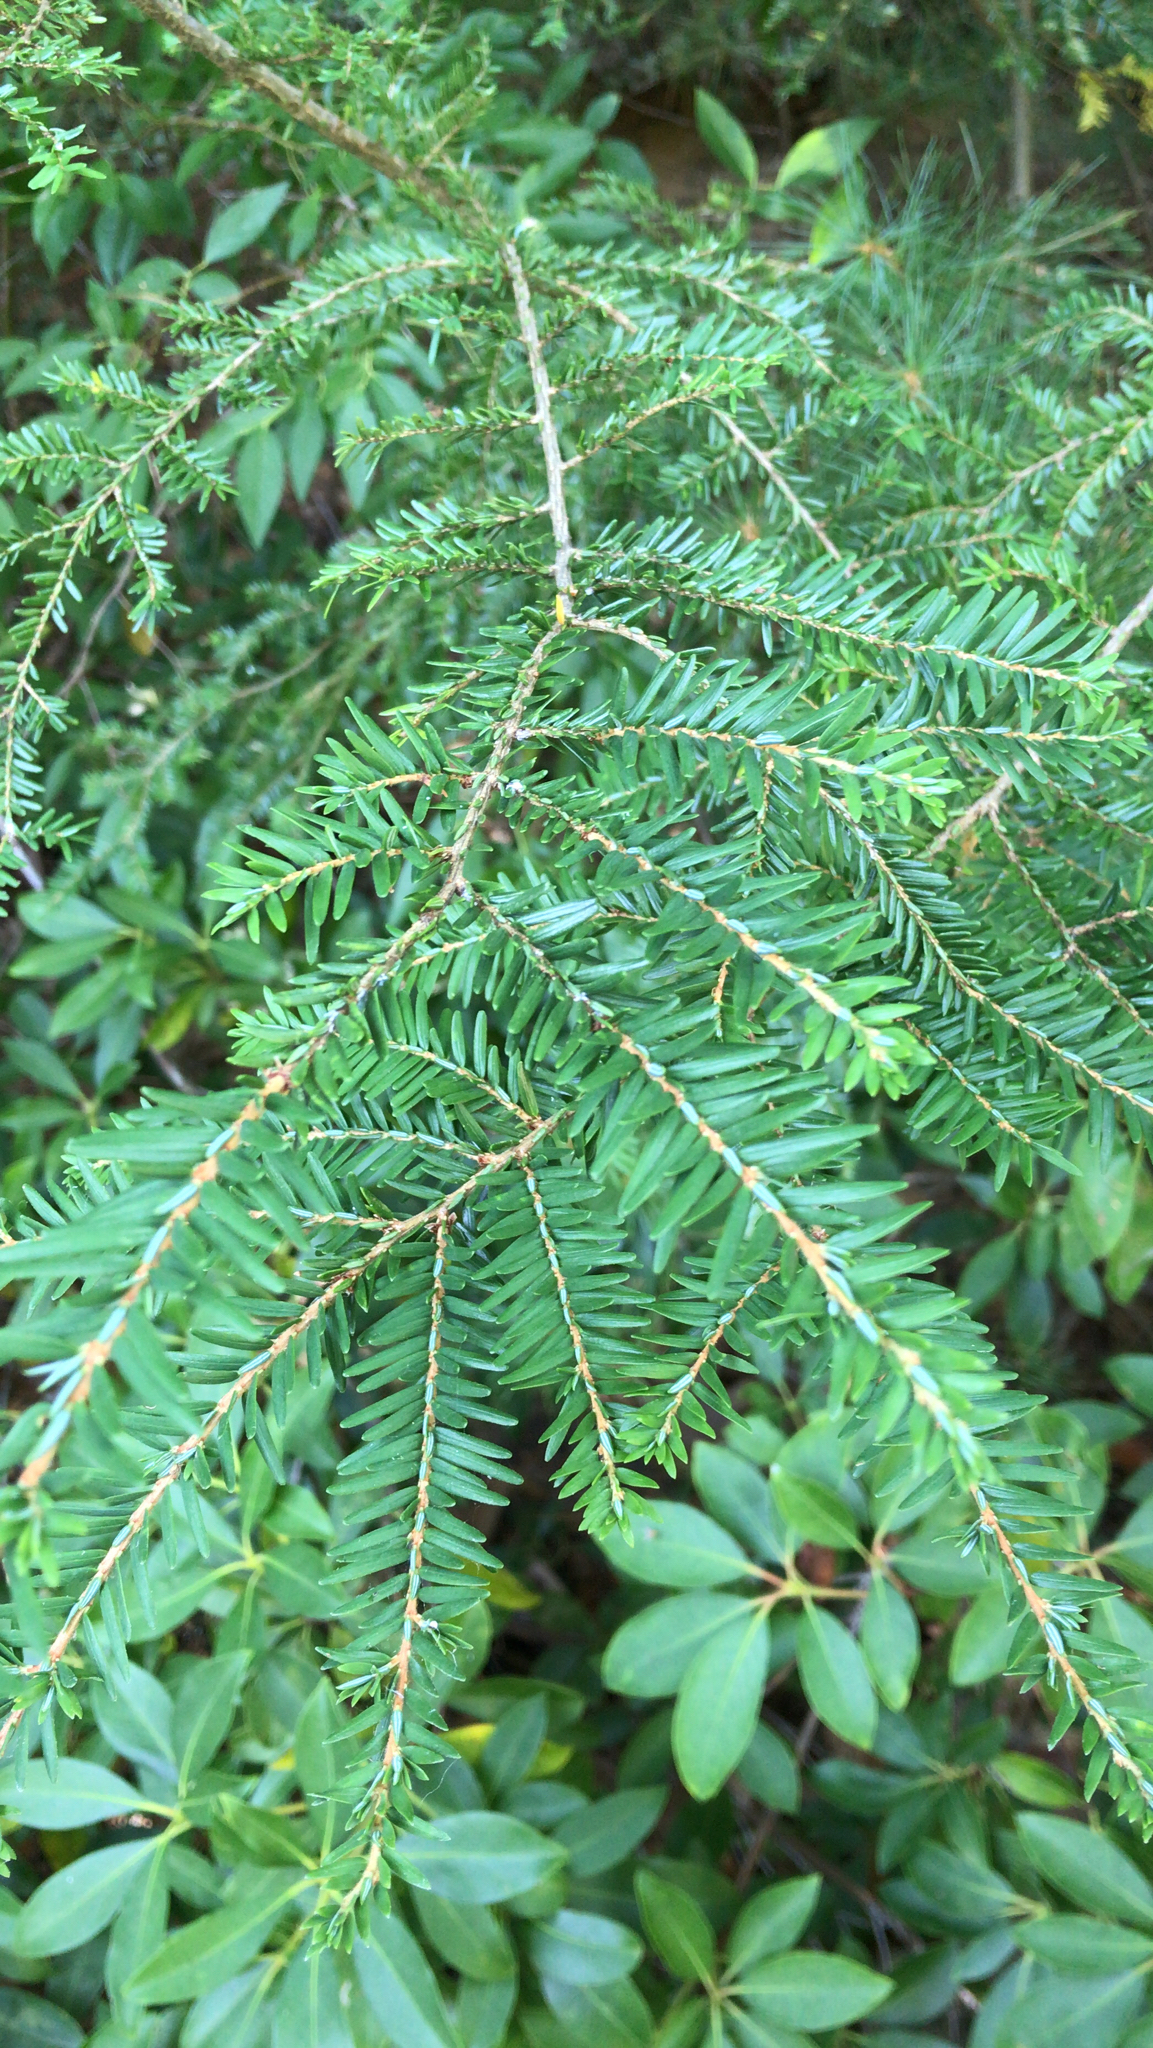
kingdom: Plantae
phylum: Tracheophyta
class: Pinopsida
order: Pinales
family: Pinaceae
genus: Tsuga
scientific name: Tsuga canadensis
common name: Eastern hemlock
